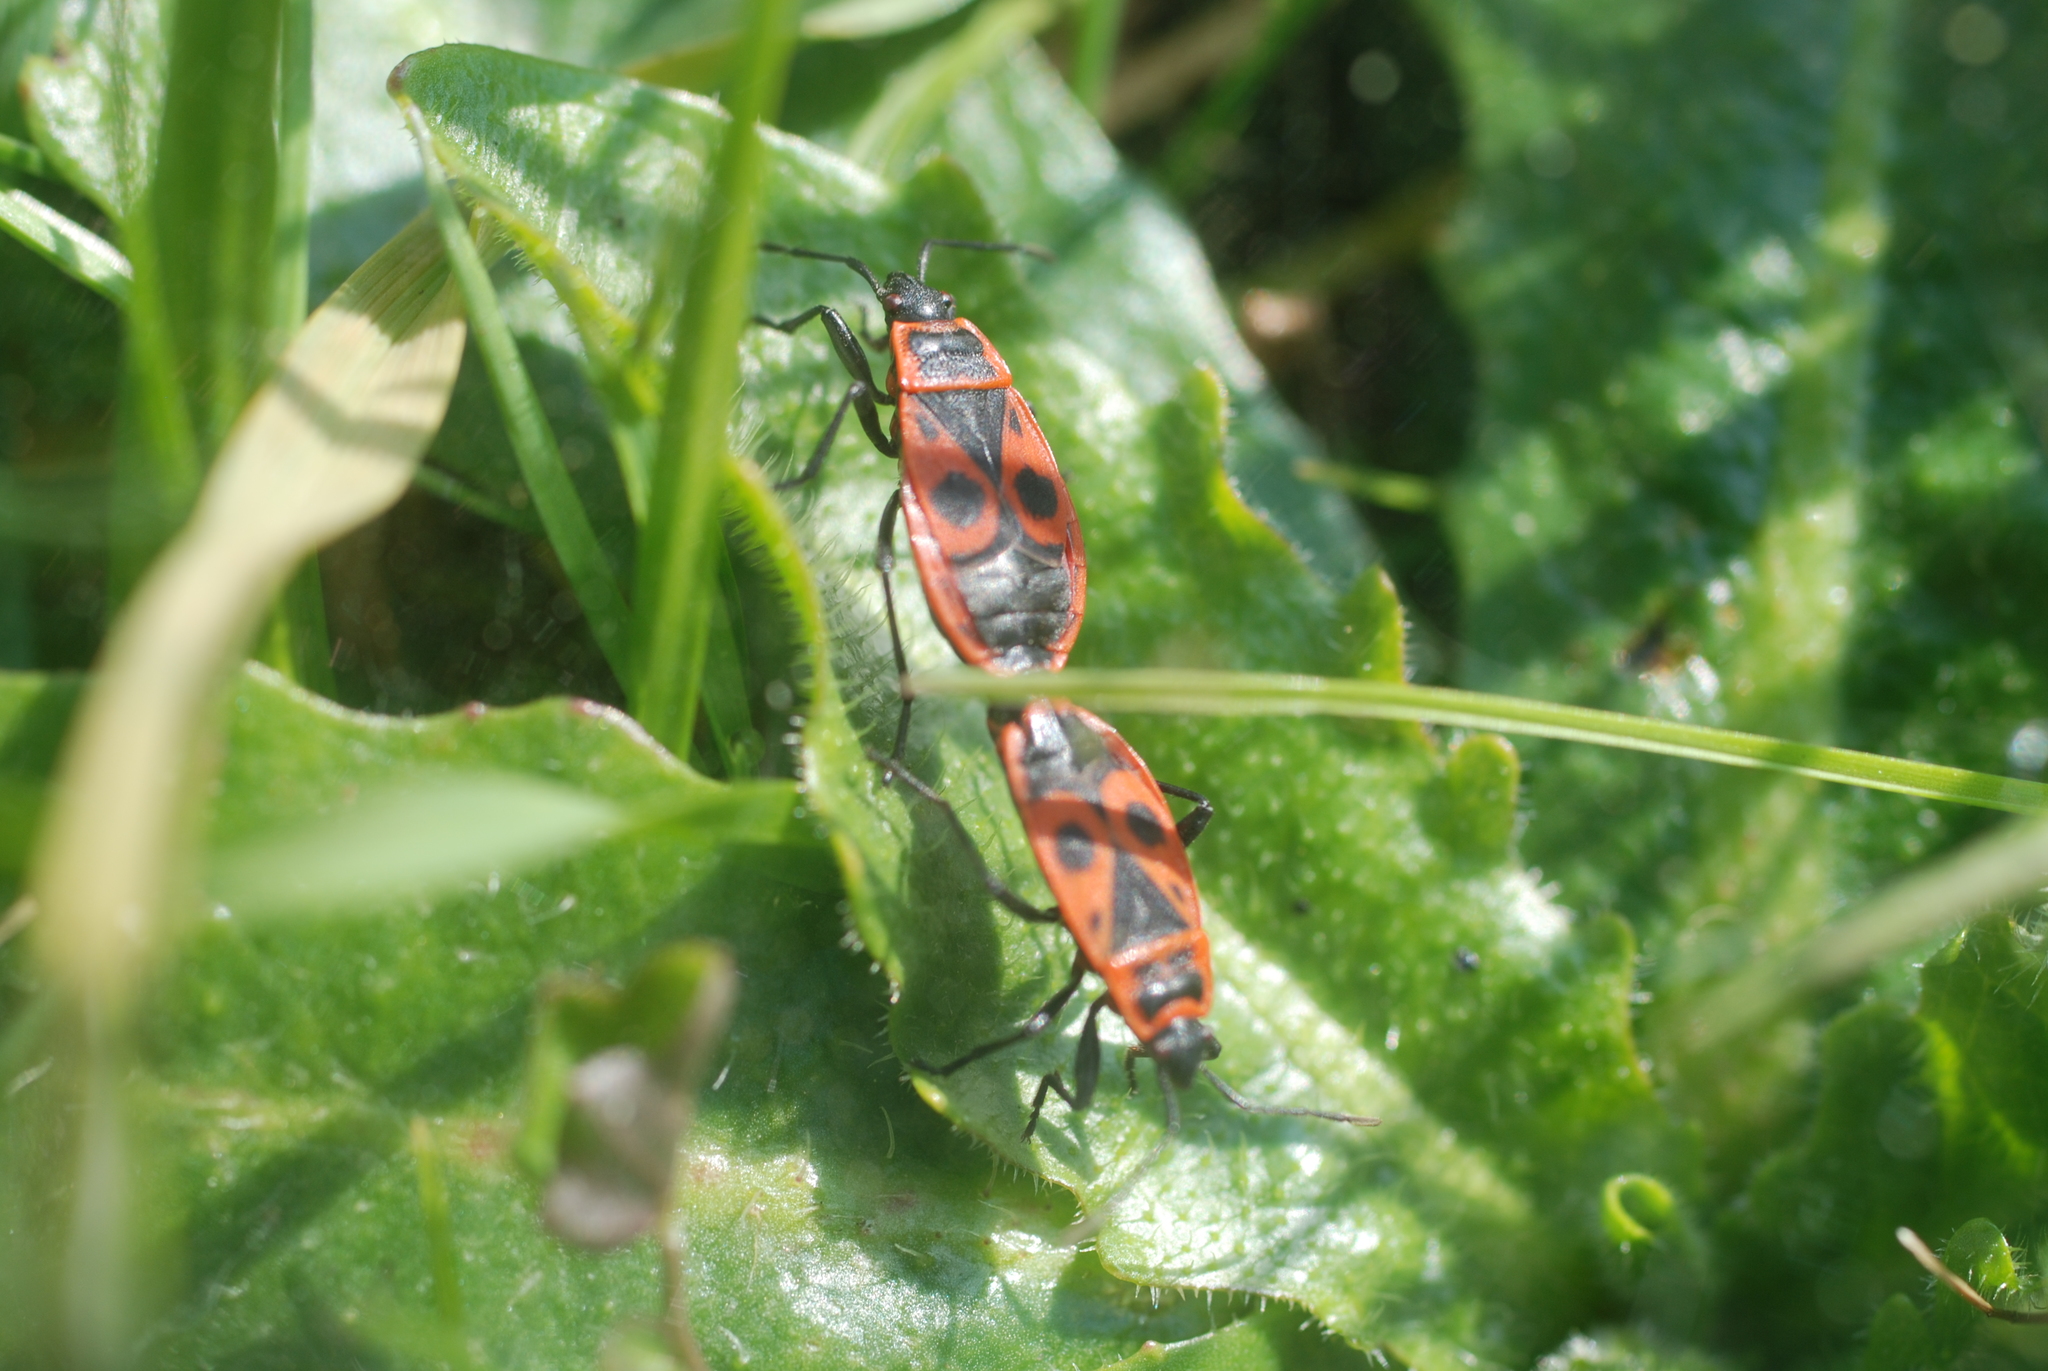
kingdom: Animalia
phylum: Arthropoda
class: Insecta
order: Hemiptera
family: Pyrrhocoridae
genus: Pyrrhocoris
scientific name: Pyrrhocoris apterus
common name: Firebug
